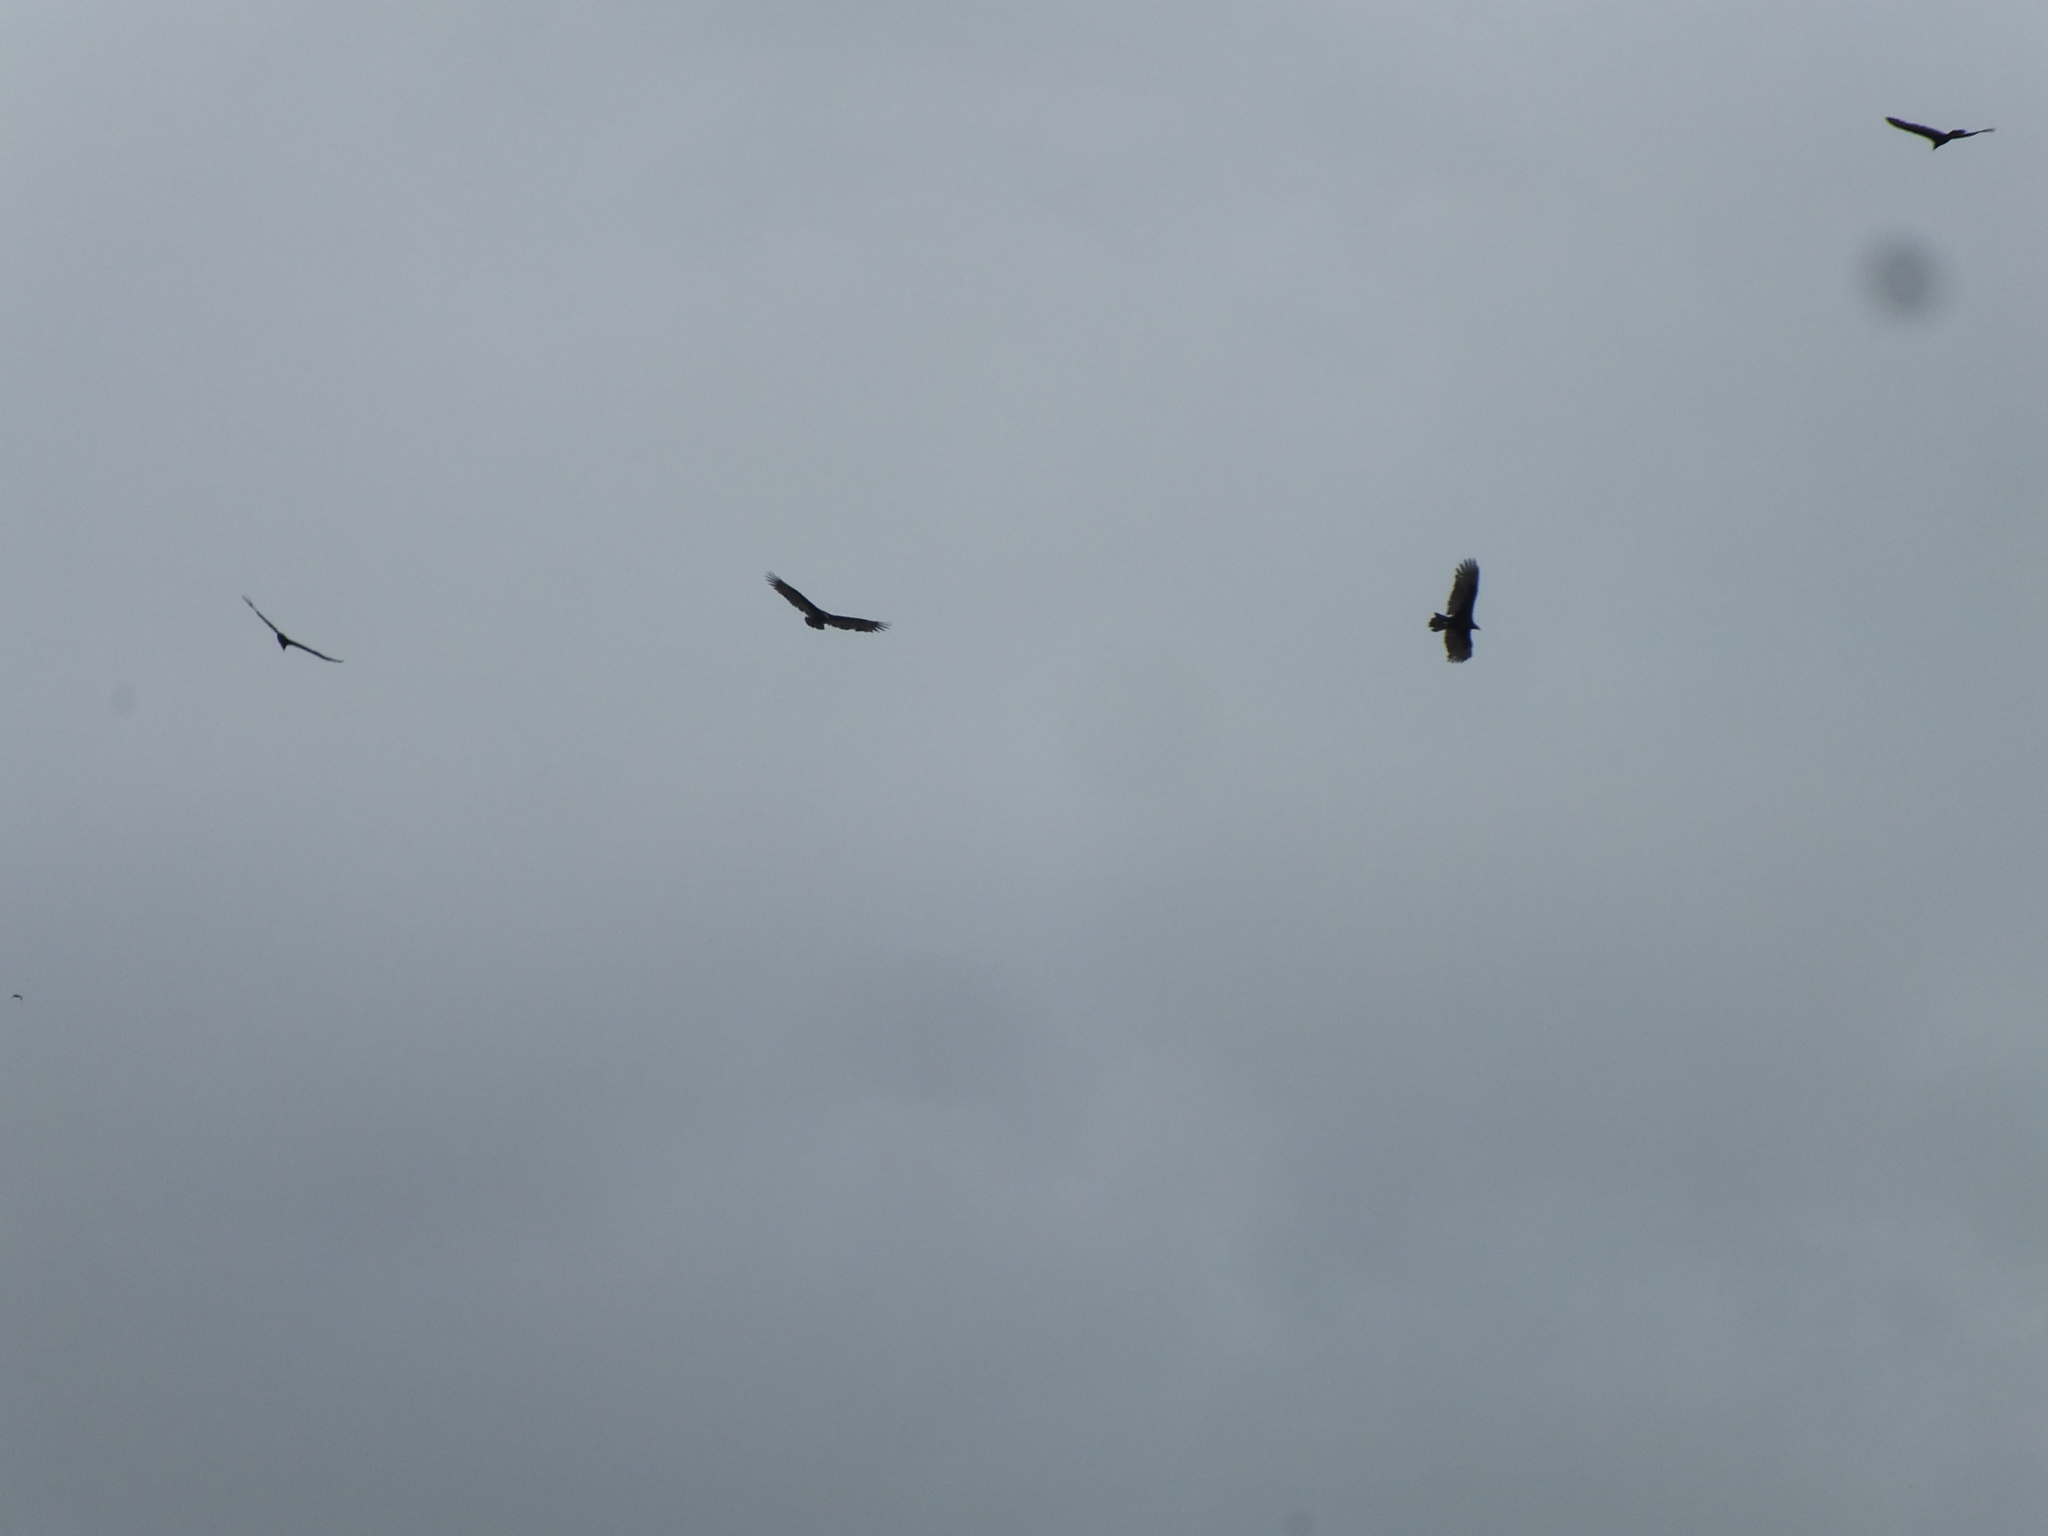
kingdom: Animalia
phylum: Chordata
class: Aves
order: Accipitriformes
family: Cathartidae
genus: Cathartes
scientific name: Cathartes aura
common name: Turkey vulture
